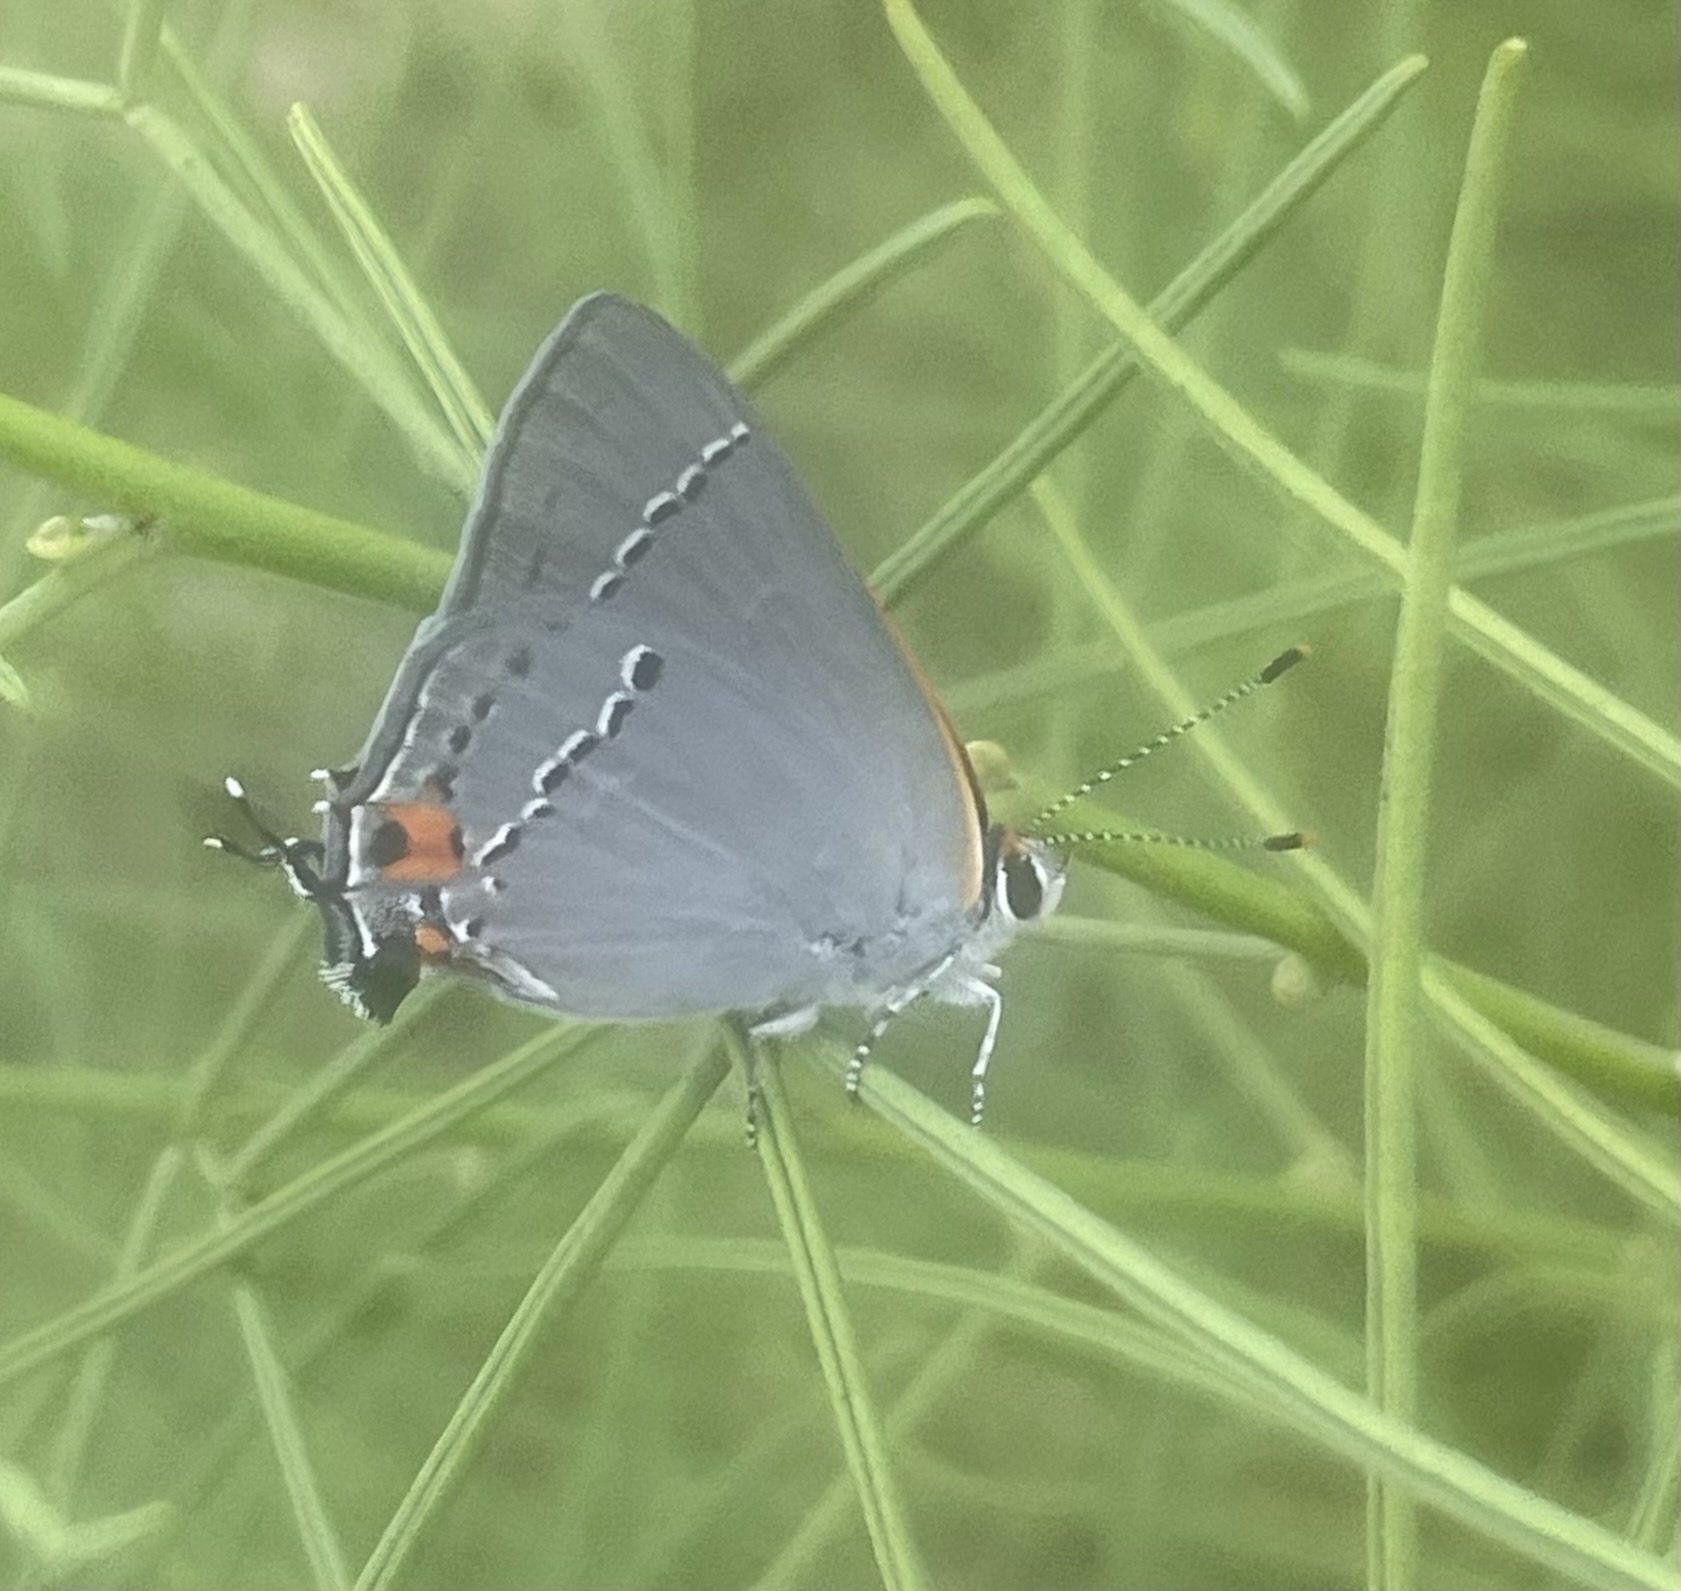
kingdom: Animalia
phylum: Arthropoda
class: Insecta
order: Lepidoptera
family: Lycaenidae
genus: Strymon
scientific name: Strymon melinus
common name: Gray hairstreak
